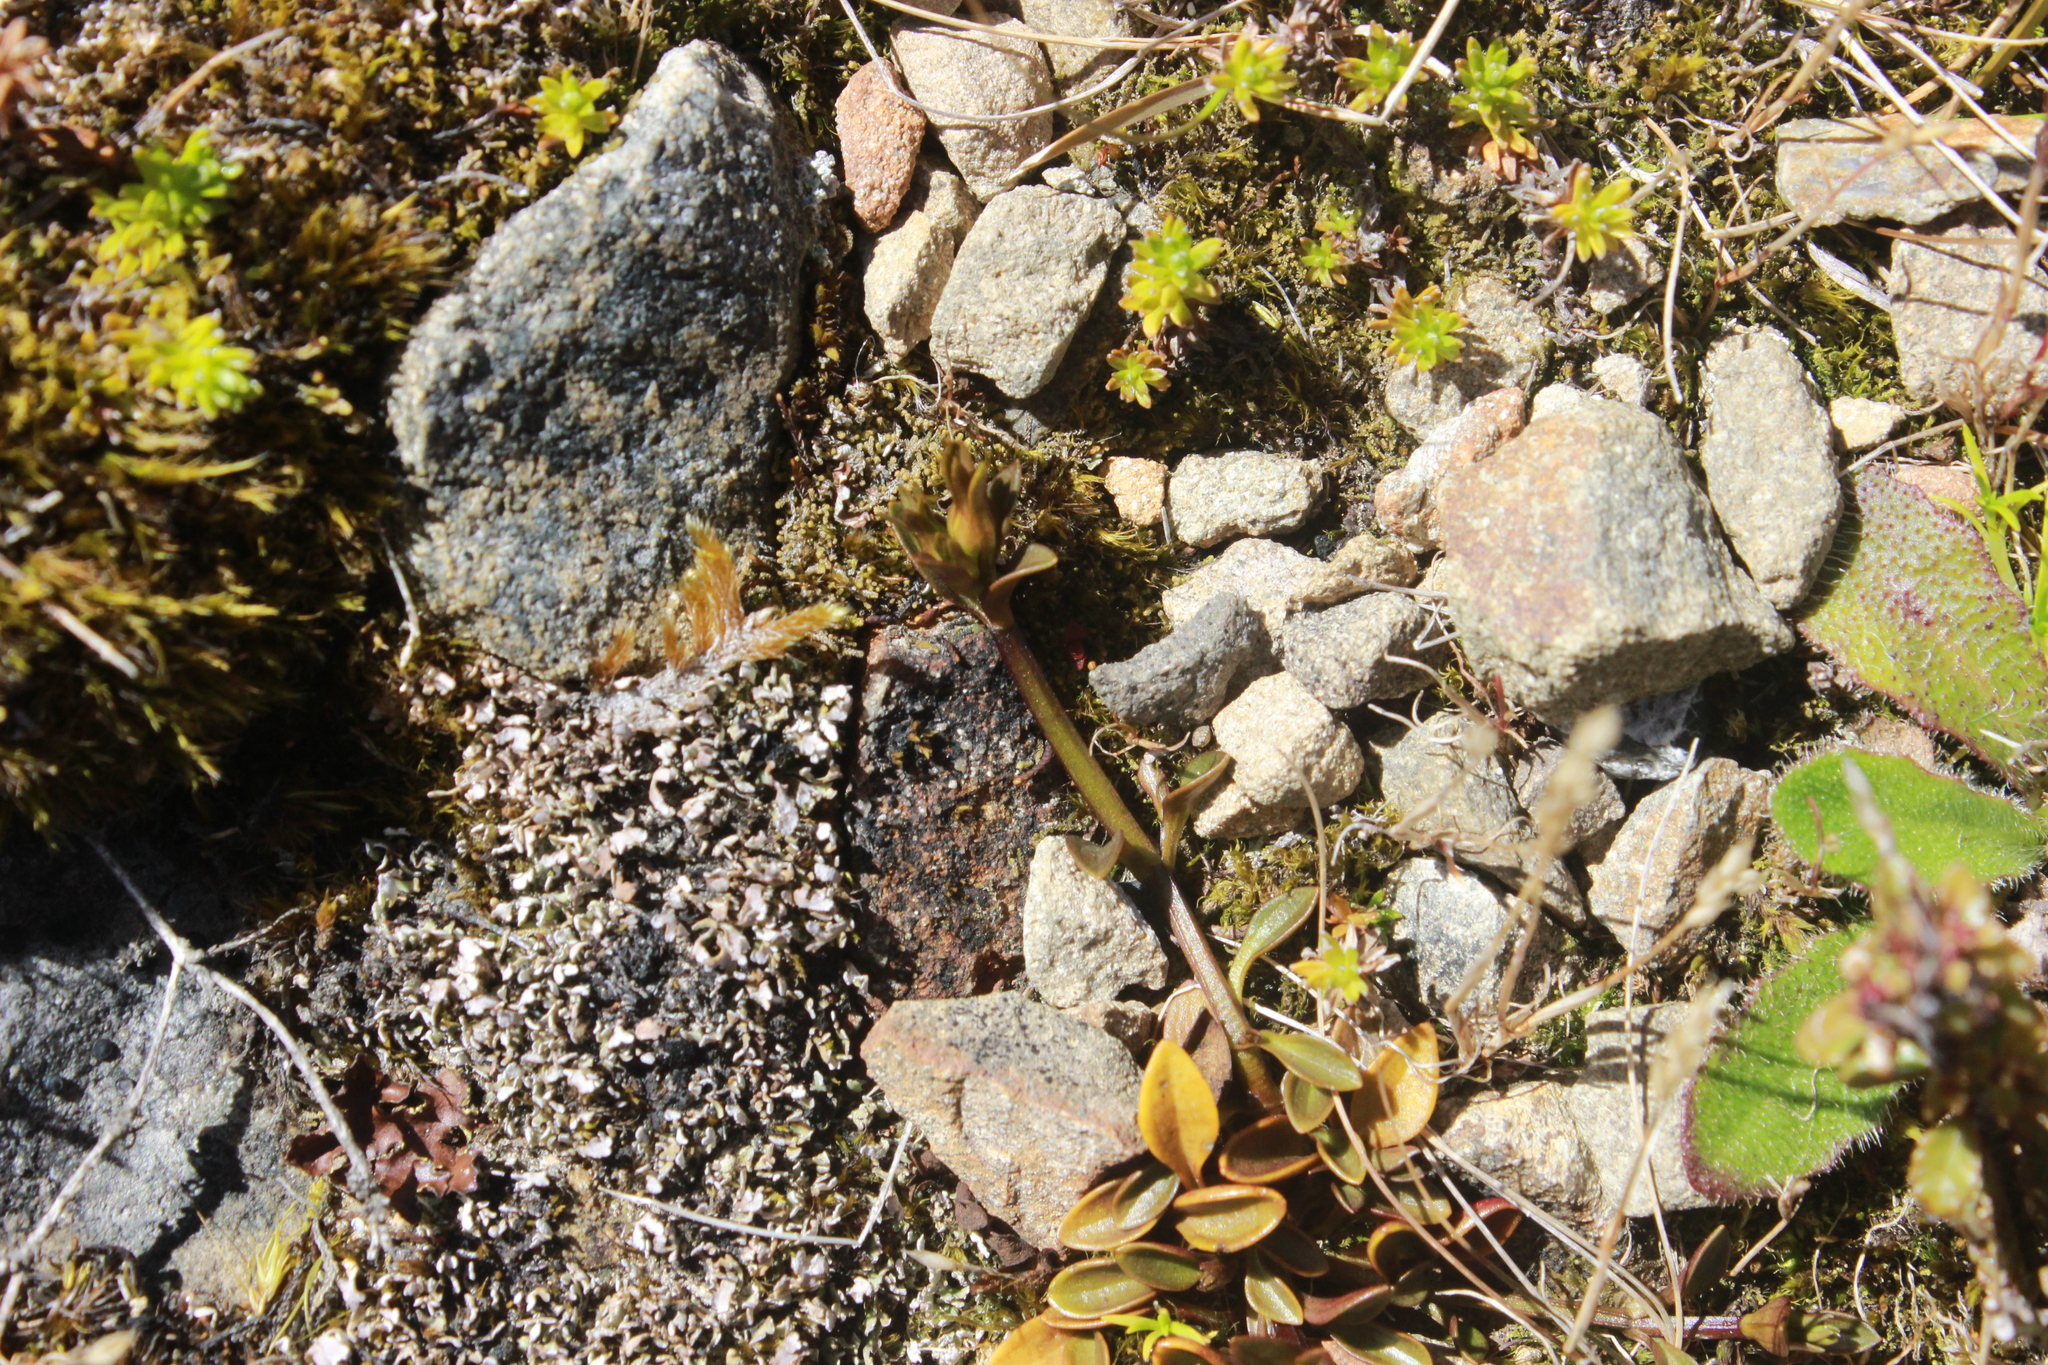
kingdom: Plantae
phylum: Tracheophyta
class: Magnoliopsida
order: Gentianales
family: Gentianaceae
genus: Gentianella
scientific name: Gentianella grisebachii
